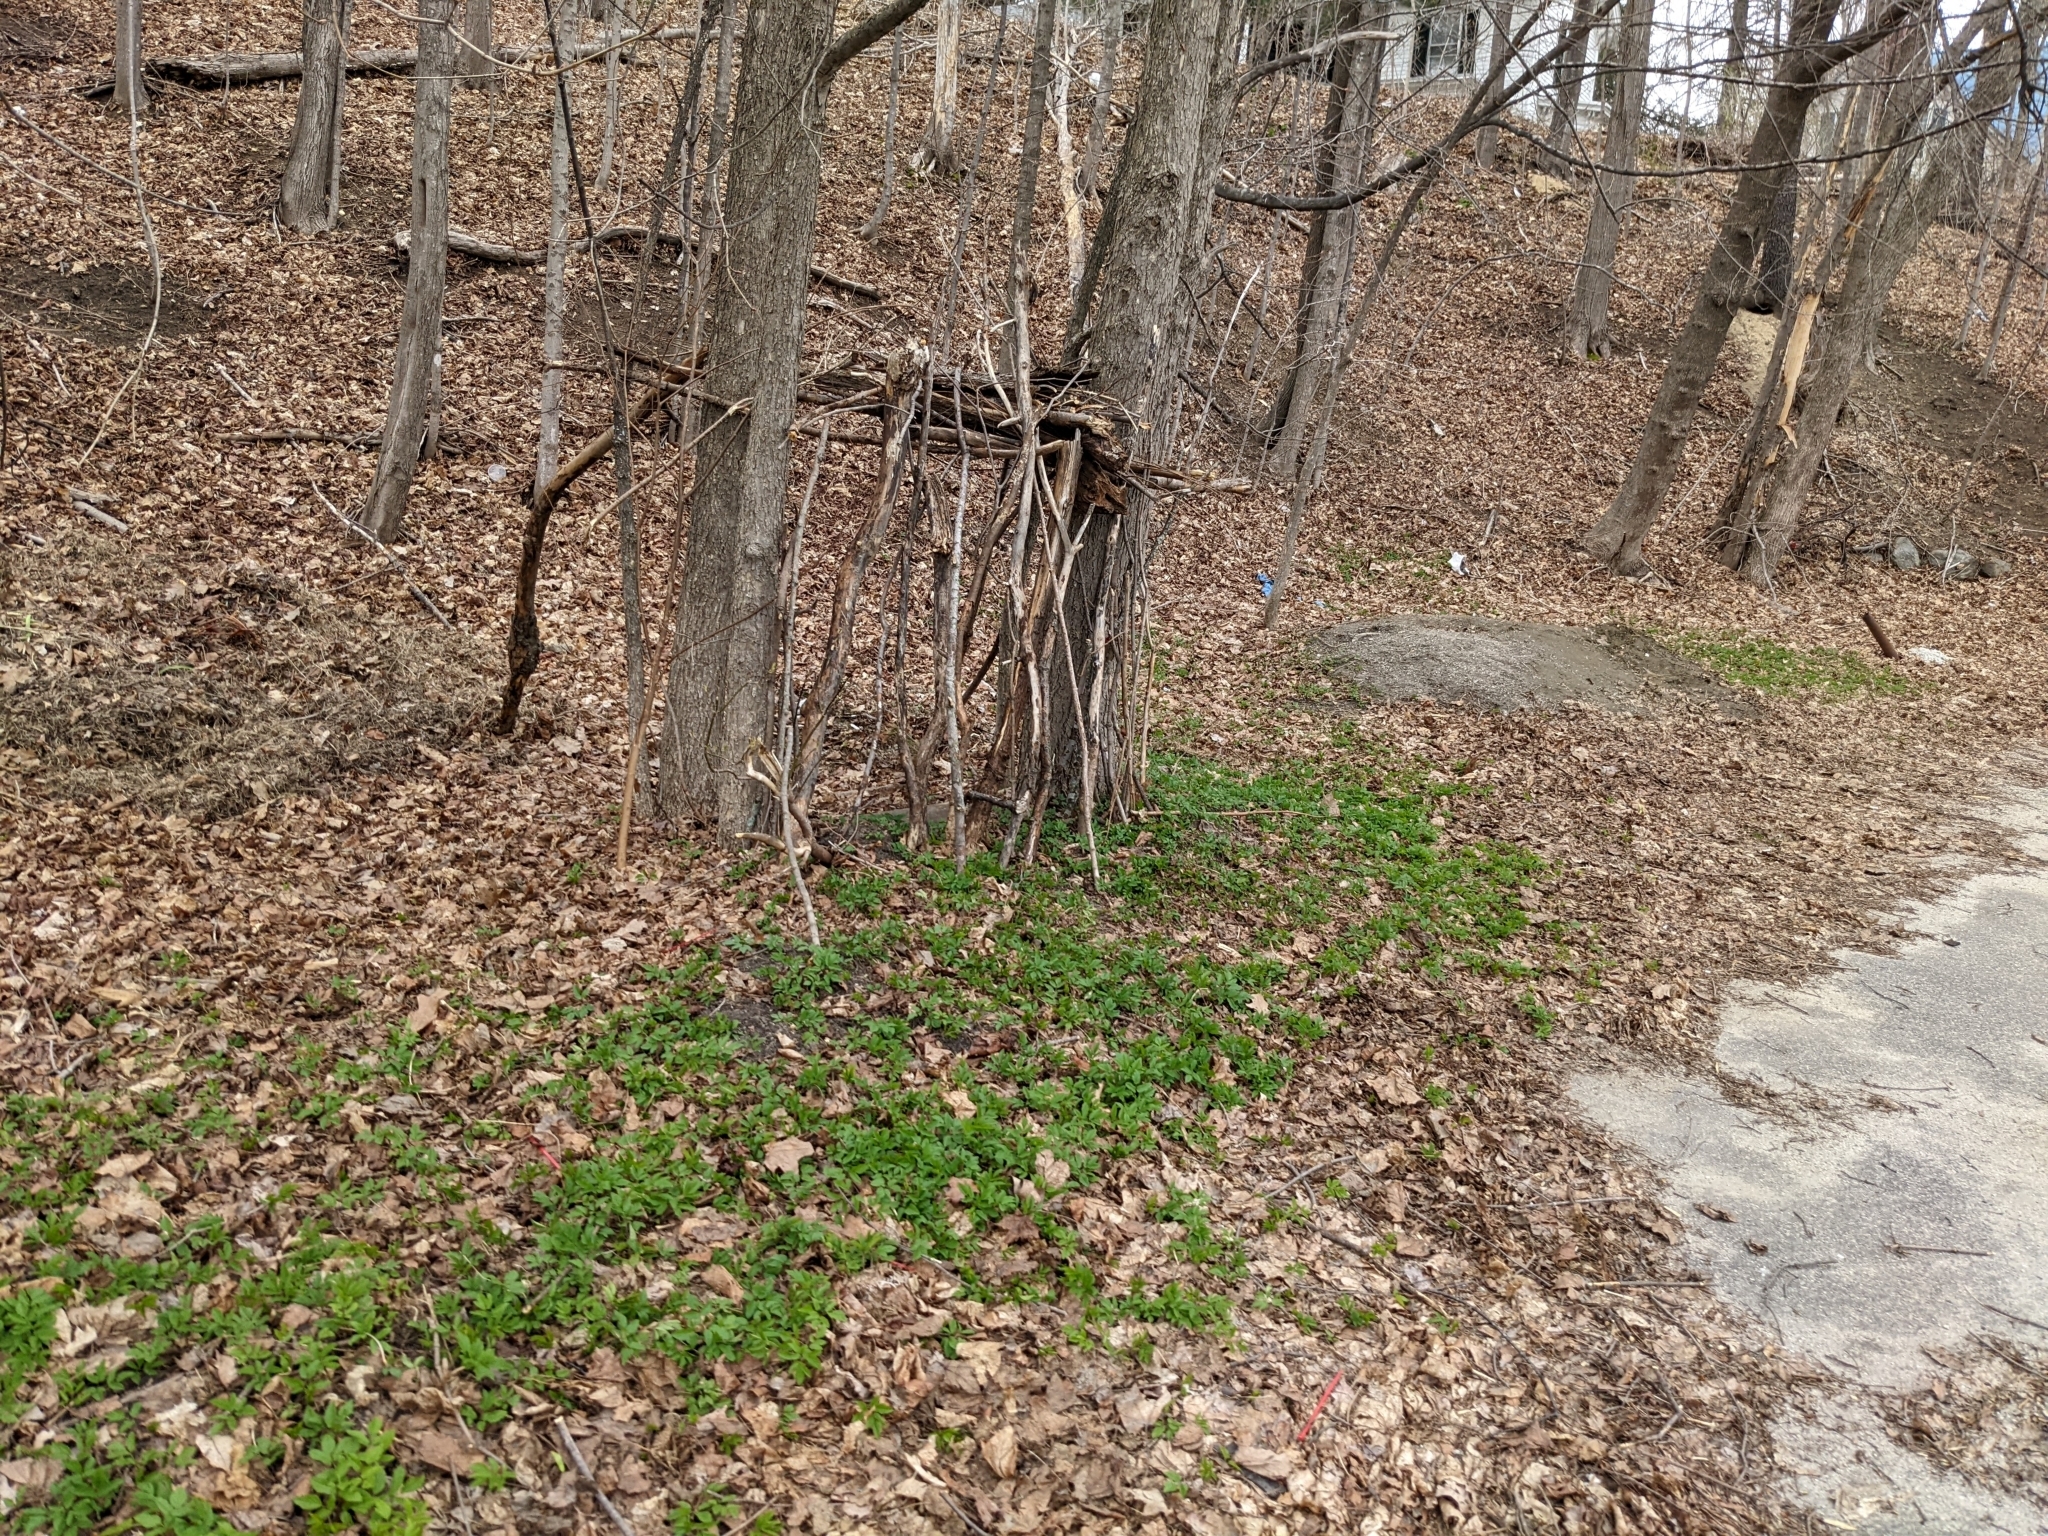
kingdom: Plantae
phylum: Tracheophyta
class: Magnoliopsida
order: Apiales
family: Apiaceae
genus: Aegopodium
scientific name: Aegopodium podagraria
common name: Ground-elder
